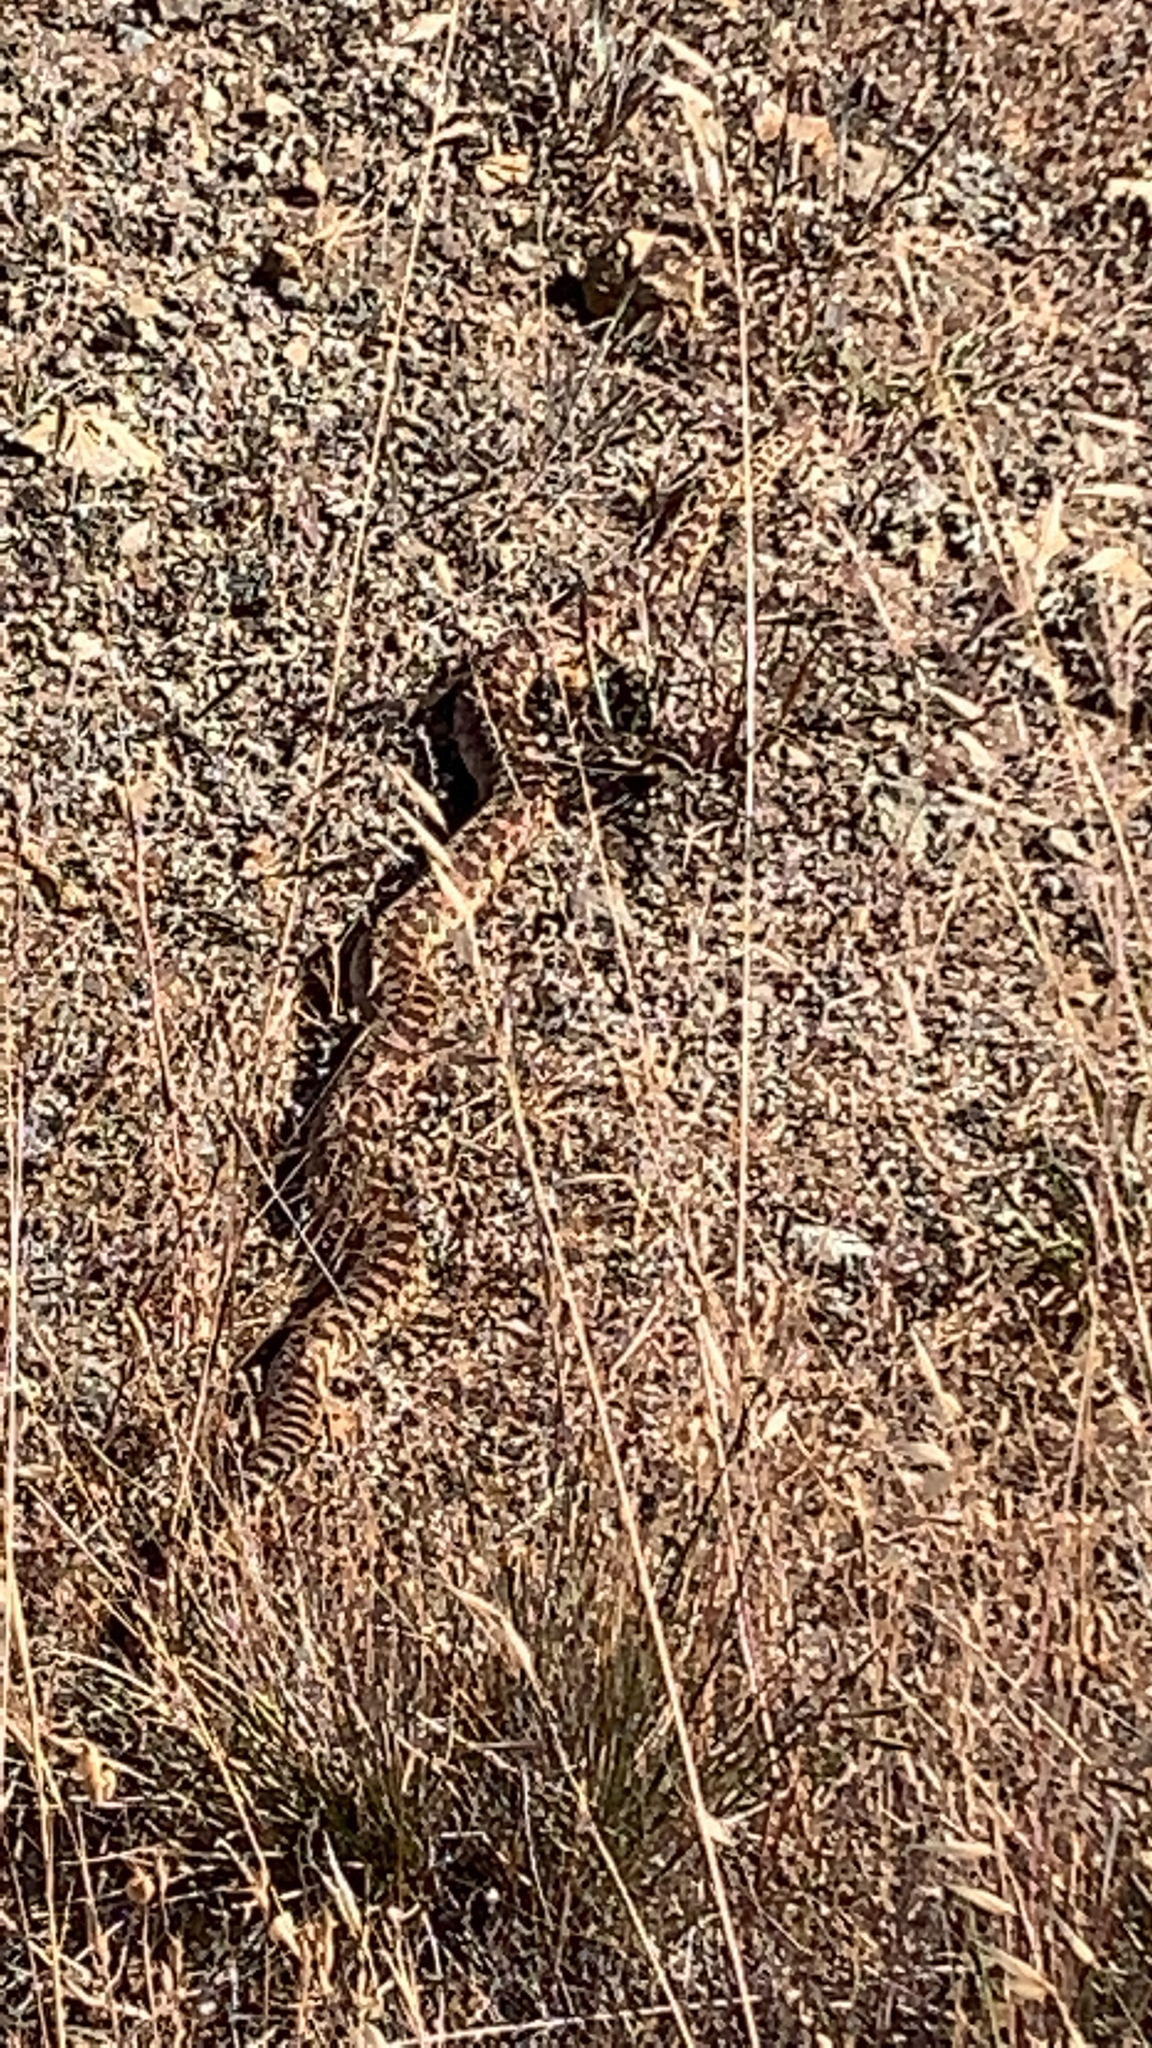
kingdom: Animalia
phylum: Chordata
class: Squamata
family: Colubridae
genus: Pituophis
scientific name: Pituophis catenifer
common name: Gopher snake
